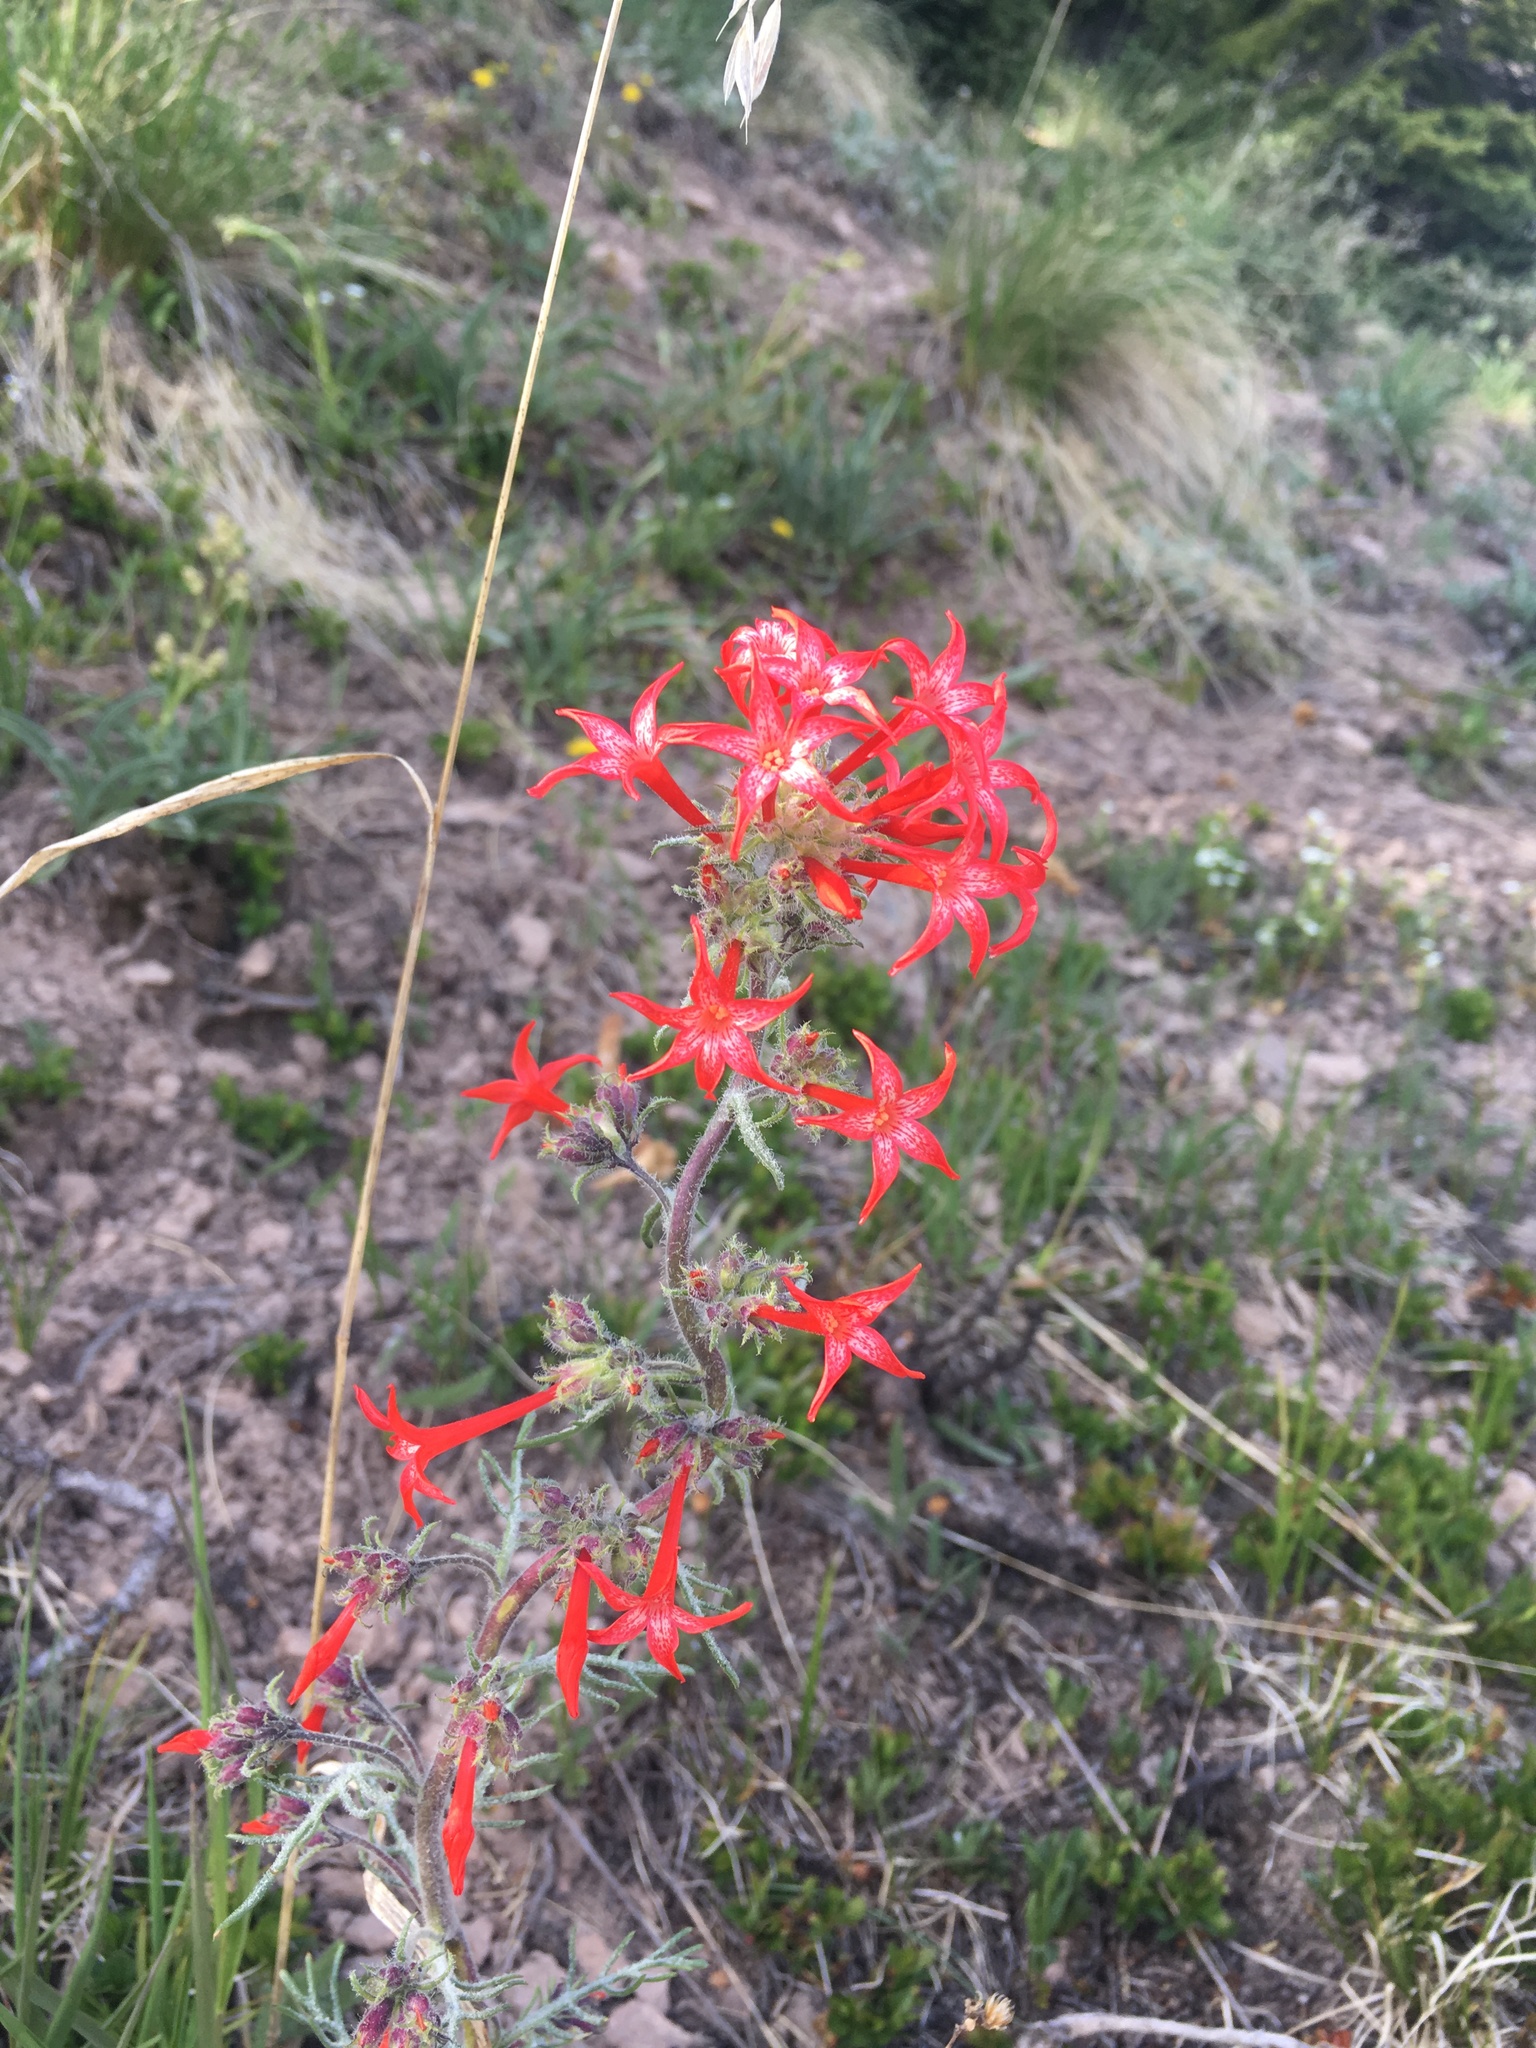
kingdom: Plantae
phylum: Tracheophyta
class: Magnoliopsida
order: Ericales
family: Polemoniaceae
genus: Ipomopsis
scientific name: Ipomopsis aggregata
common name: Scarlet gilia
